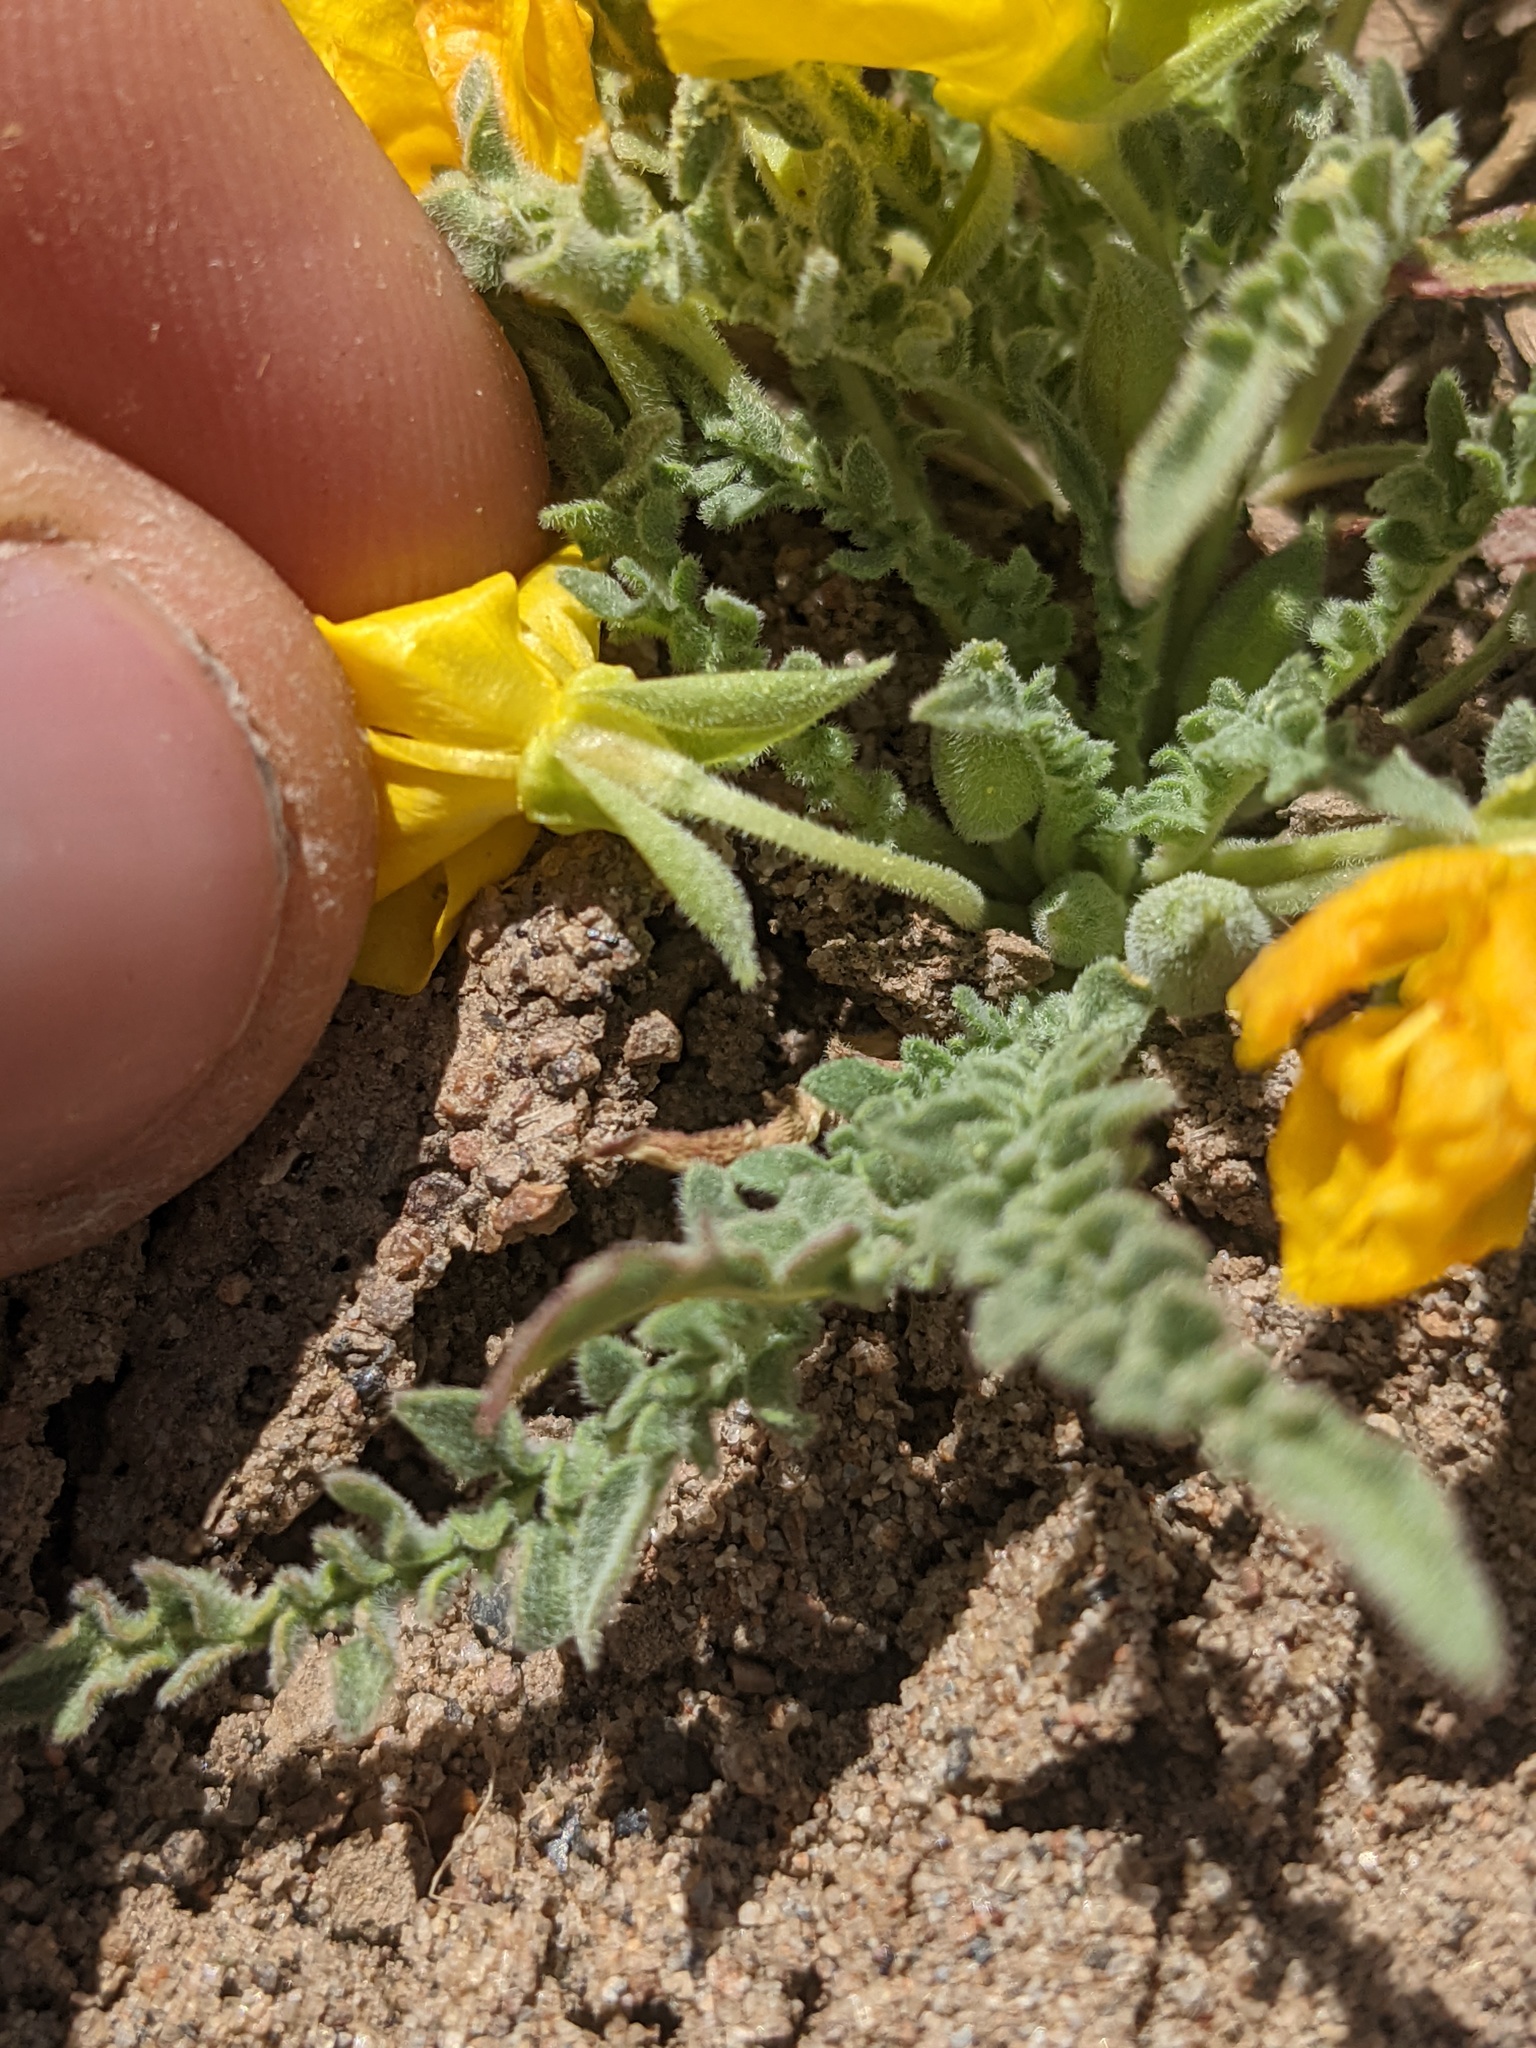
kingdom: Plantae
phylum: Tracheophyta
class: Magnoliopsida
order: Myrtales
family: Onagraceae
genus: Taraxia
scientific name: Taraxia tanacetifolia
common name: Tansyleaf evening primrose
